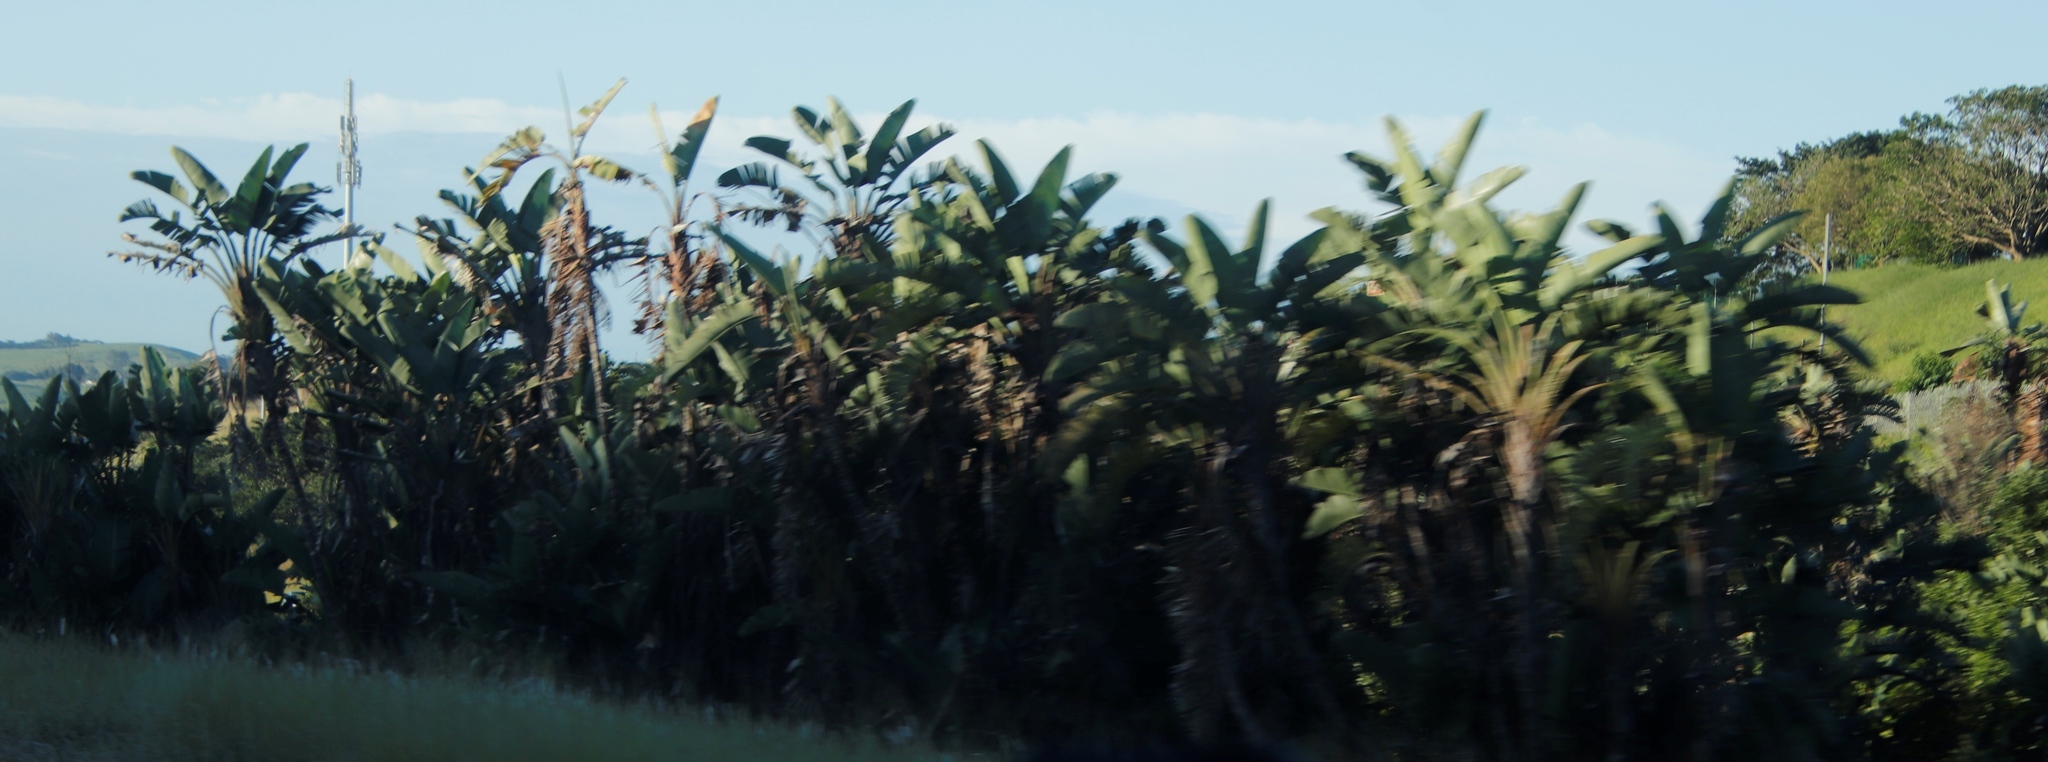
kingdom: Plantae
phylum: Tracheophyta
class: Liliopsida
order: Zingiberales
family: Strelitziaceae
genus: Strelitzia
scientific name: Strelitzia nicolai
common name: Bird-of-paradise tree
